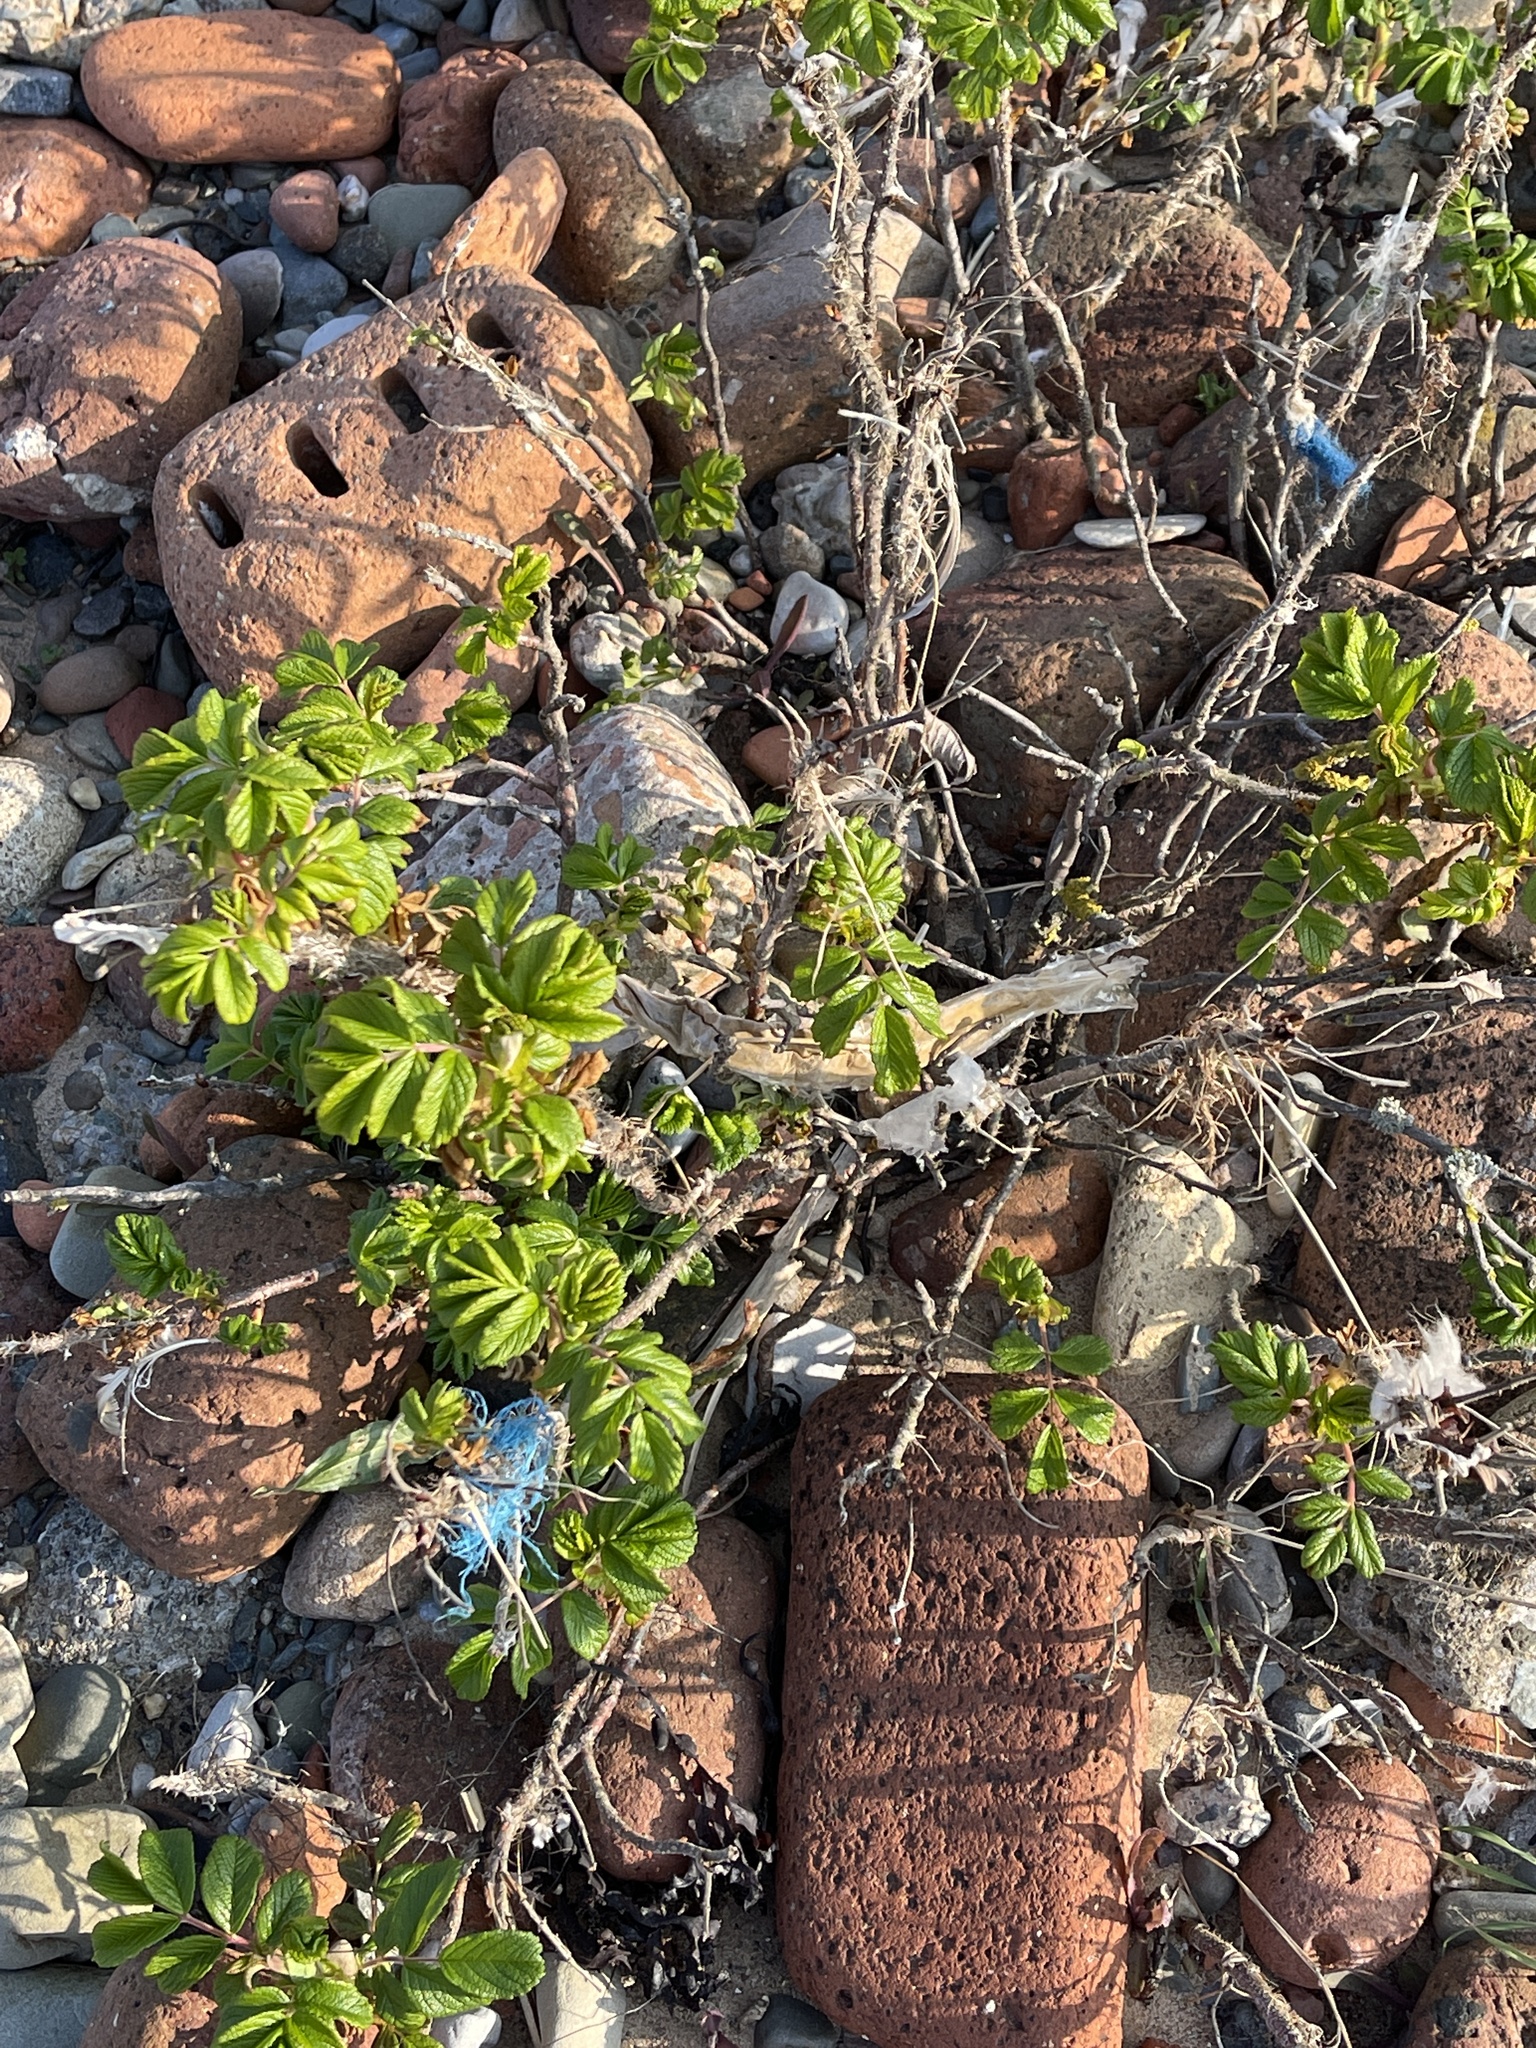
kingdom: Plantae
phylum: Tracheophyta
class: Magnoliopsida
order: Rosales
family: Rosaceae
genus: Rosa
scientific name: Rosa rugosa
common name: Japanese rose
